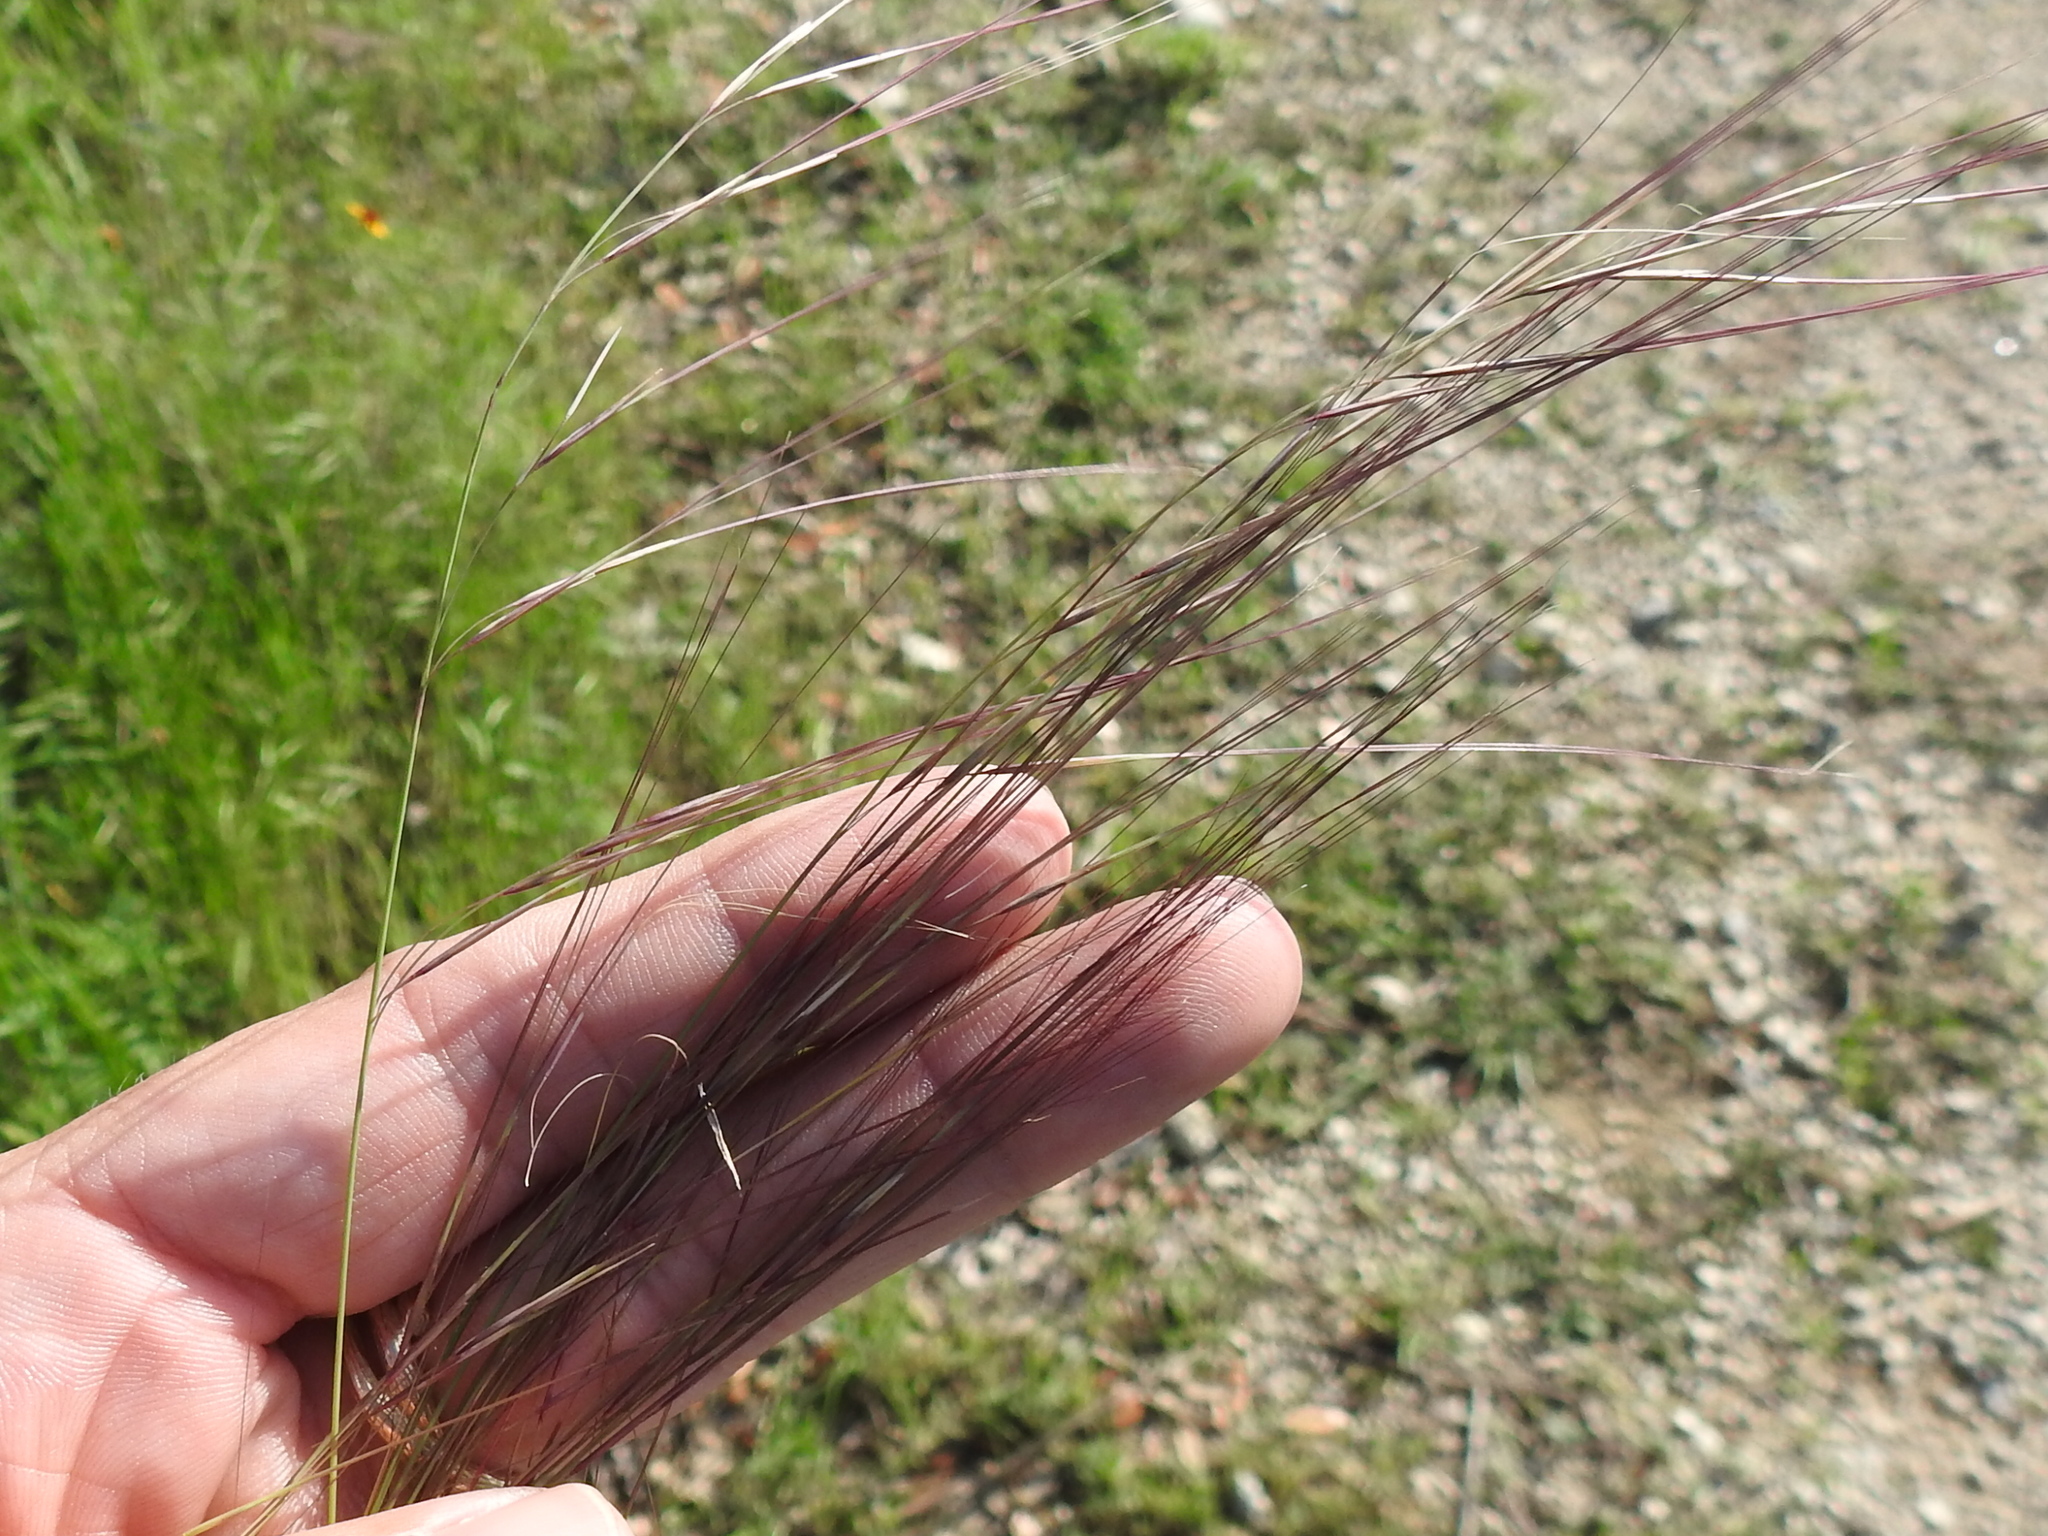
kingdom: Plantae
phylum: Tracheophyta
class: Liliopsida
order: Poales
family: Poaceae
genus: Aristida
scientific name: Aristida purpurea
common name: Purple threeawn
